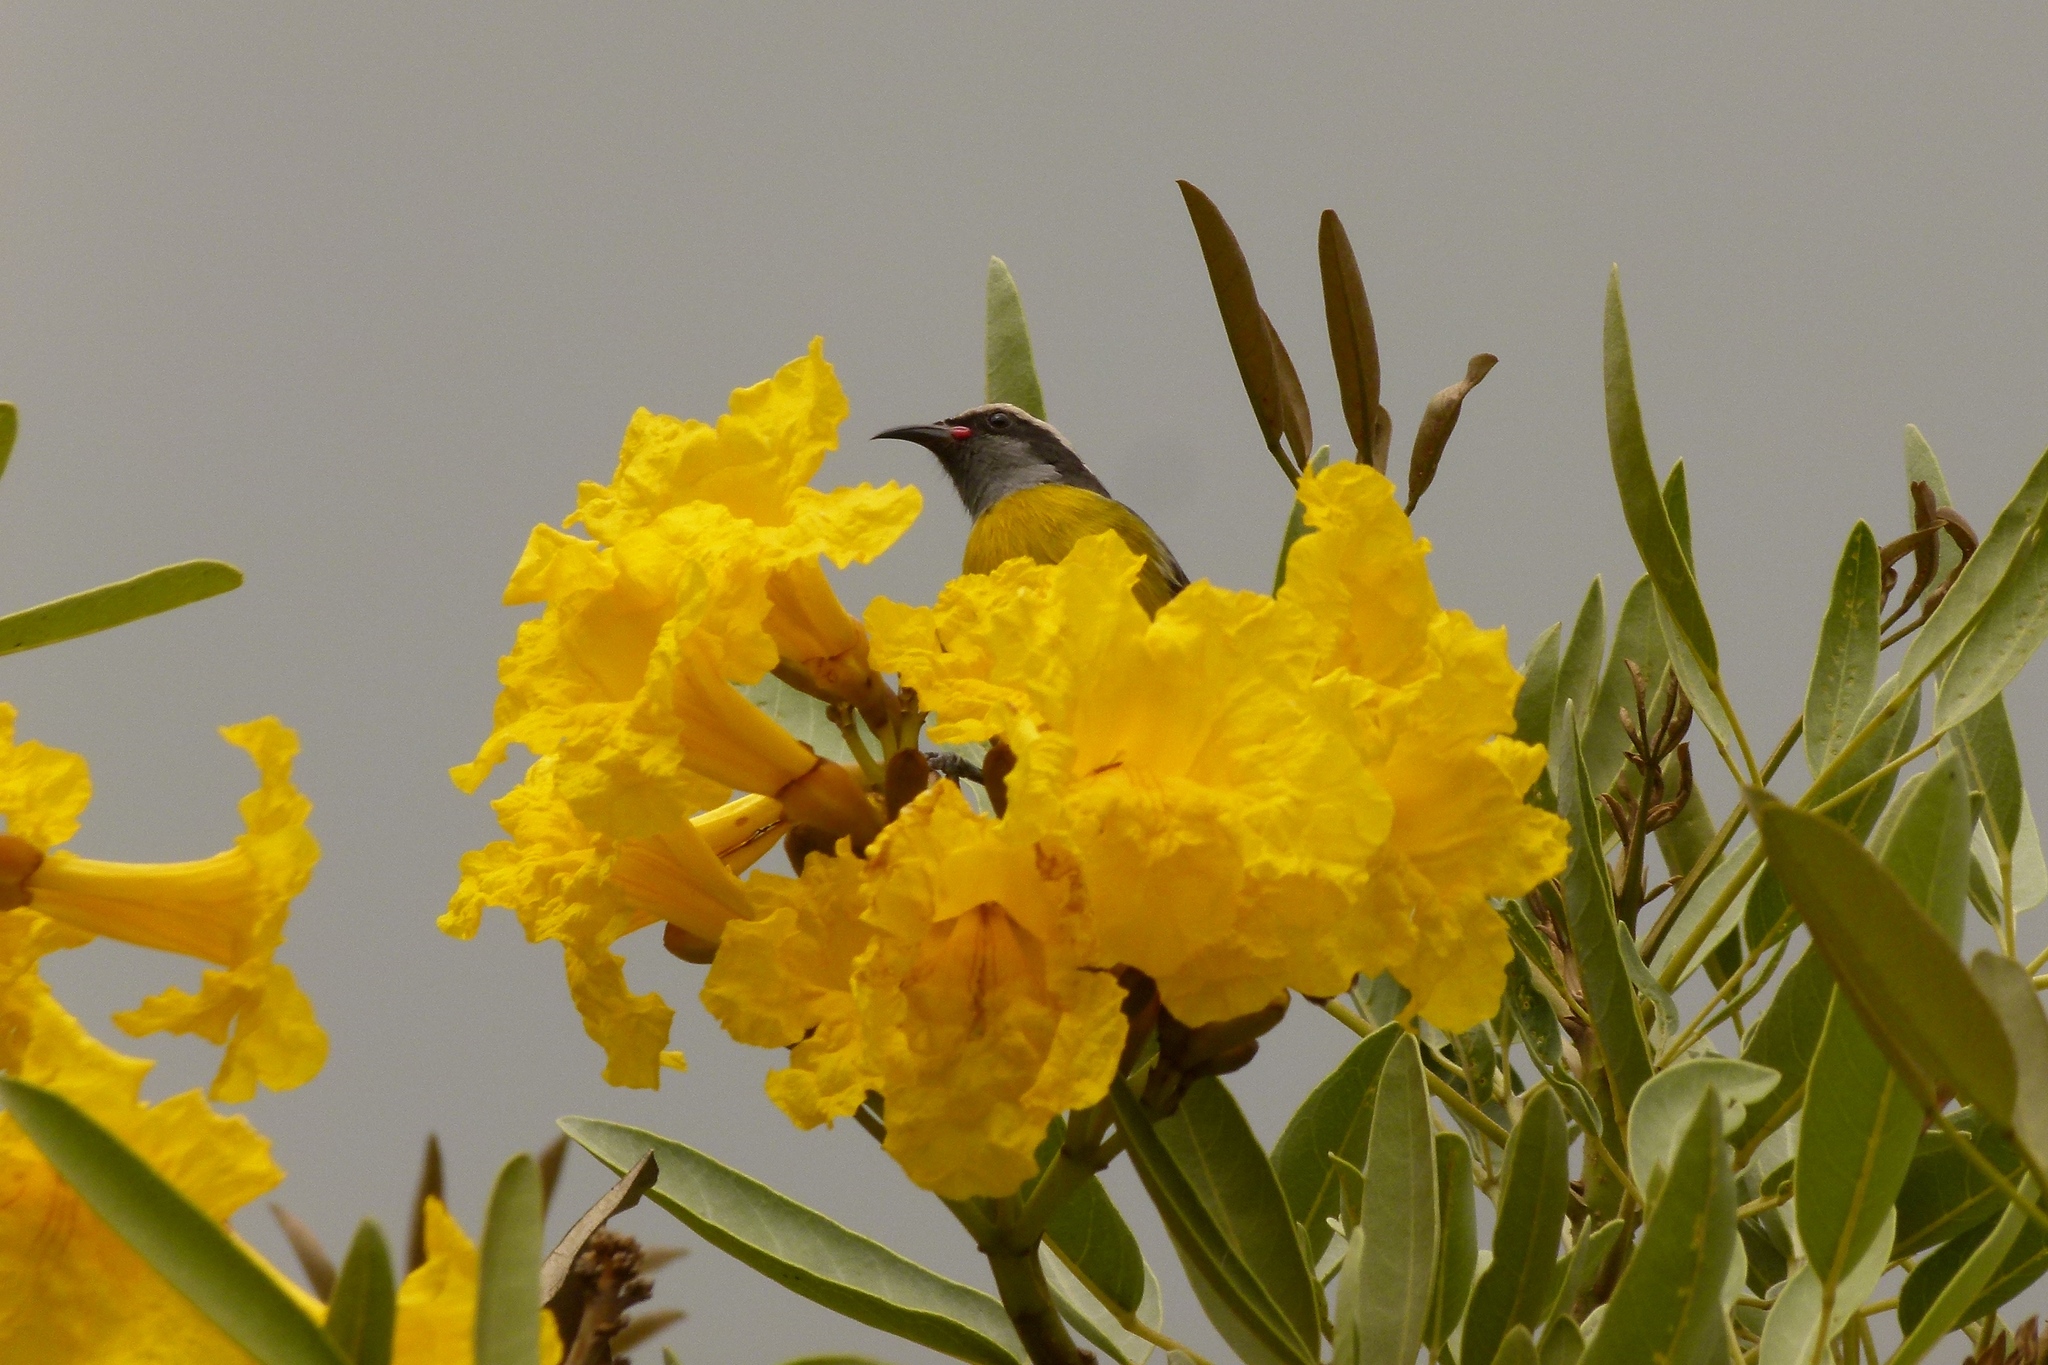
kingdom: Animalia
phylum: Chordata
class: Aves
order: Passeriformes
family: Thraupidae
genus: Coereba
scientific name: Coereba flaveola
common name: Bananaquit
